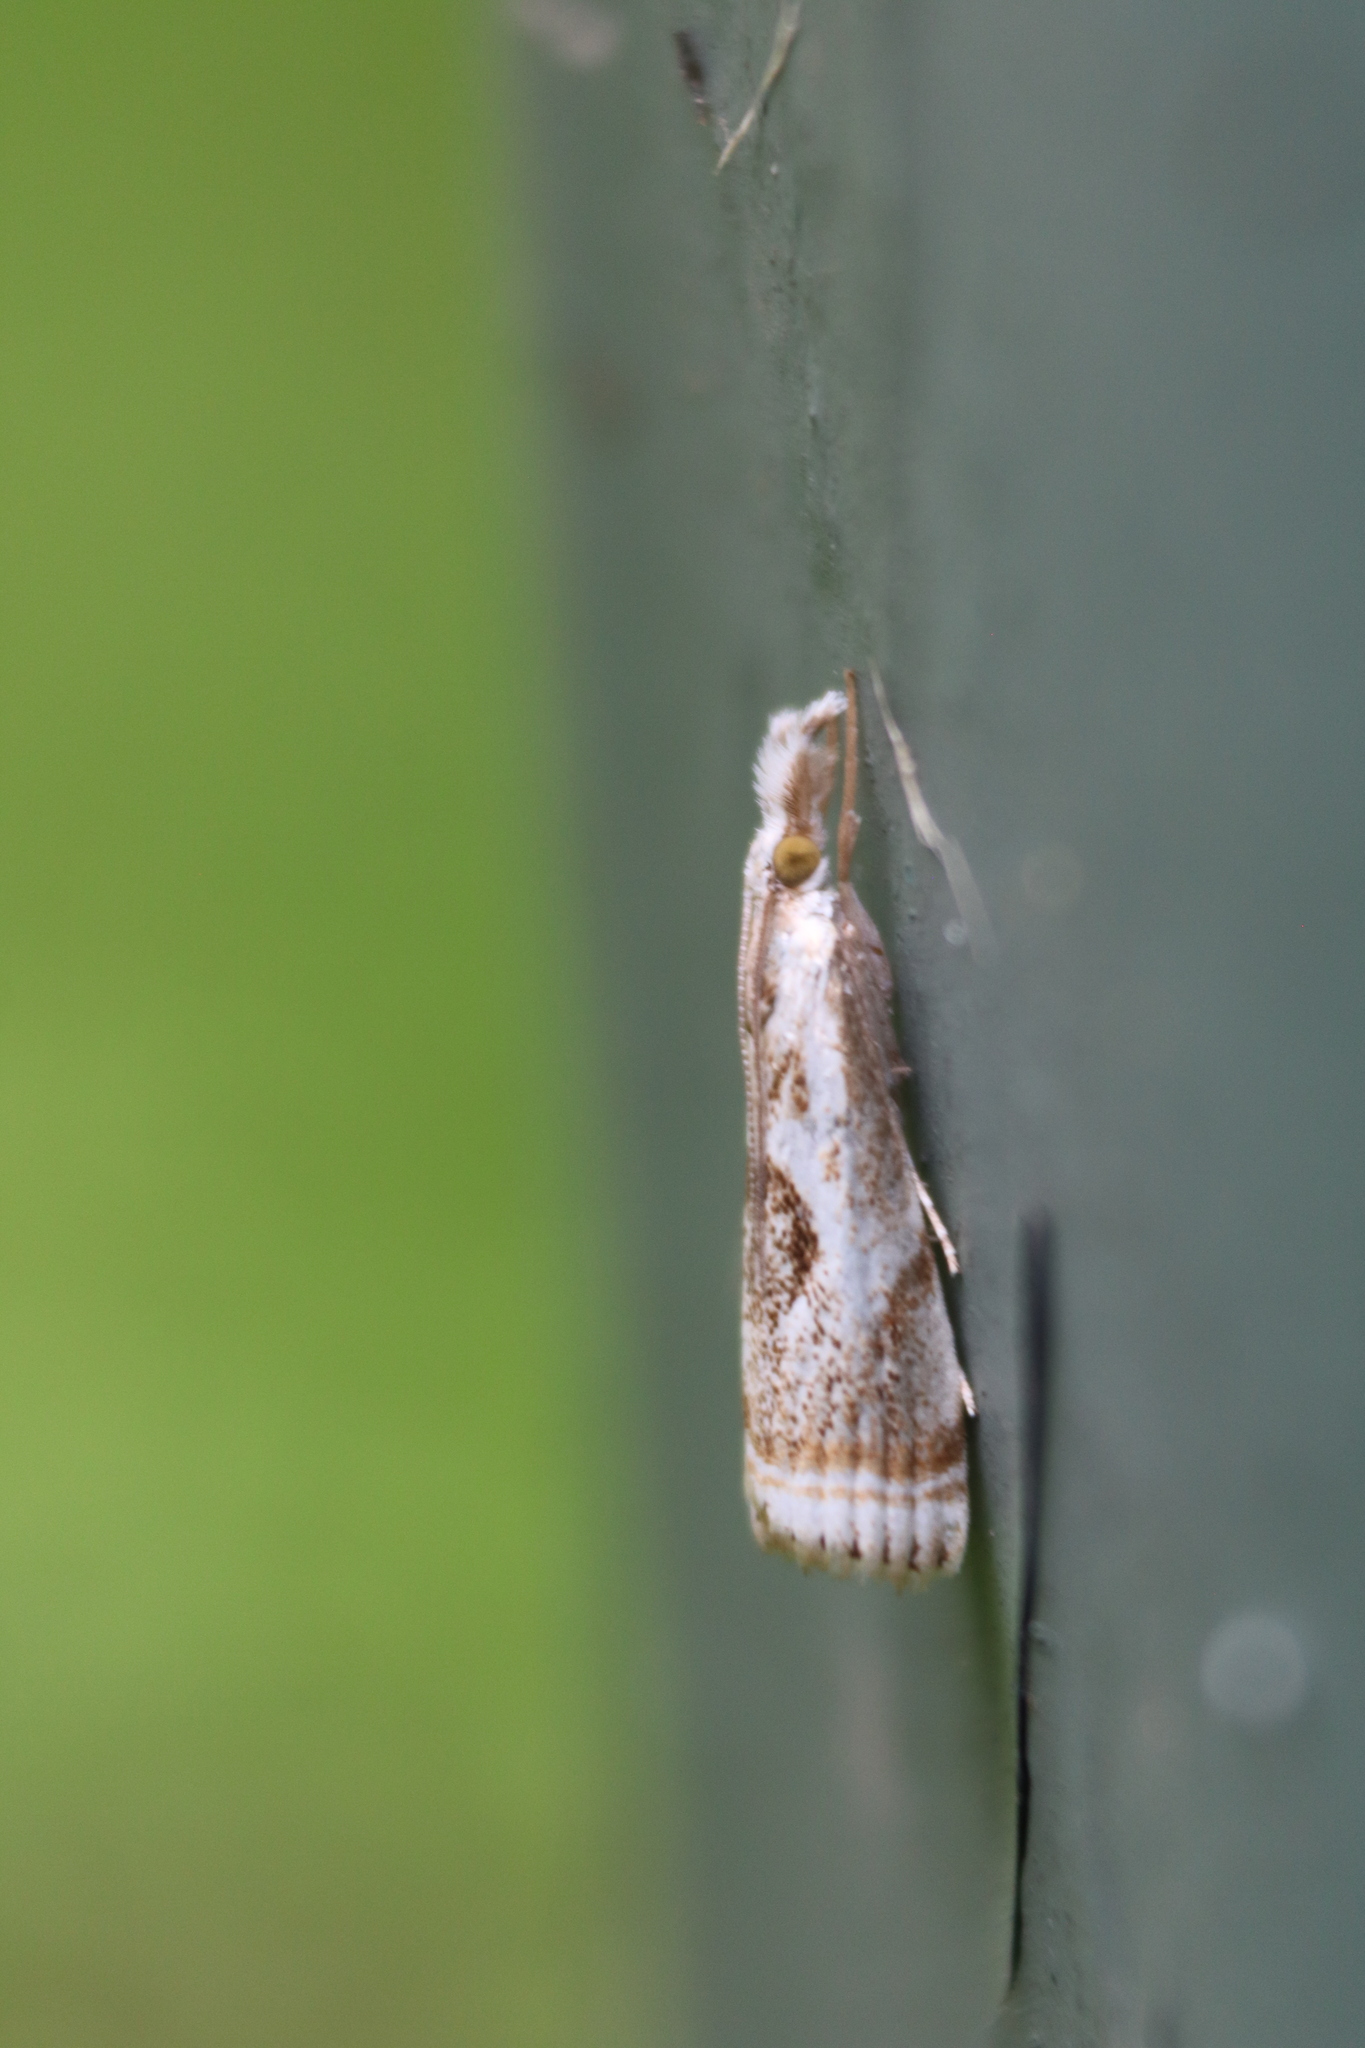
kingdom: Animalia
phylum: Arthropoda
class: Insecta
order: Lepidoptera
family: Crambidae
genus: Microcrambus
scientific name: Microcrambus elegans
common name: Elegant grass-veneer
